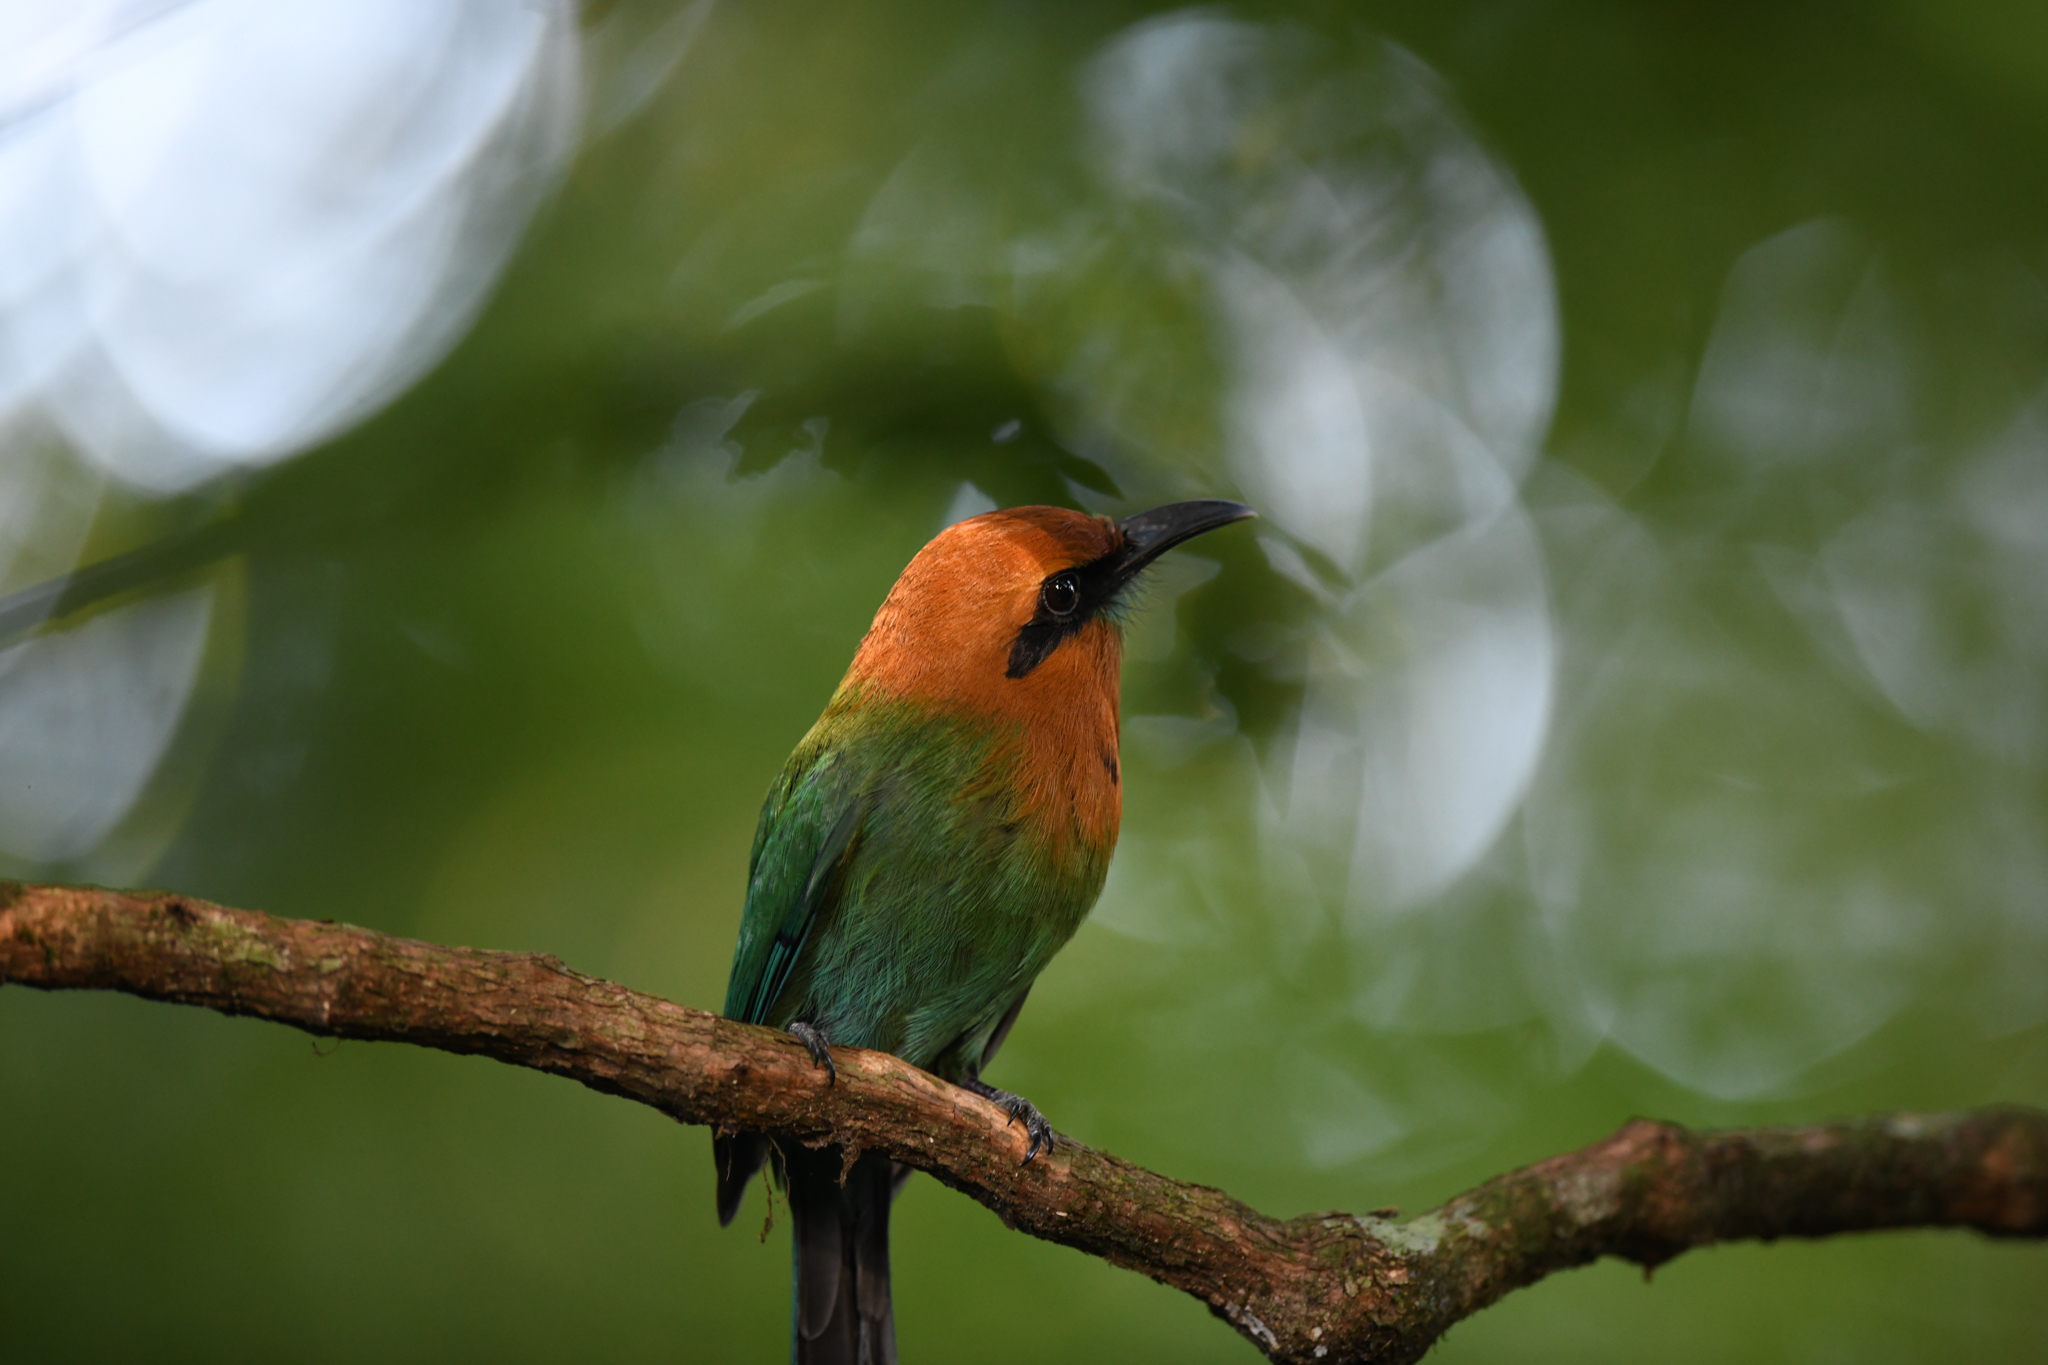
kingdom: Animalia
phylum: Chordata
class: Aves
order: Coraciiformes
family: Momotidae
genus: Electron
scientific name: Electron platyrhynchum
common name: Broad-billed motmot
